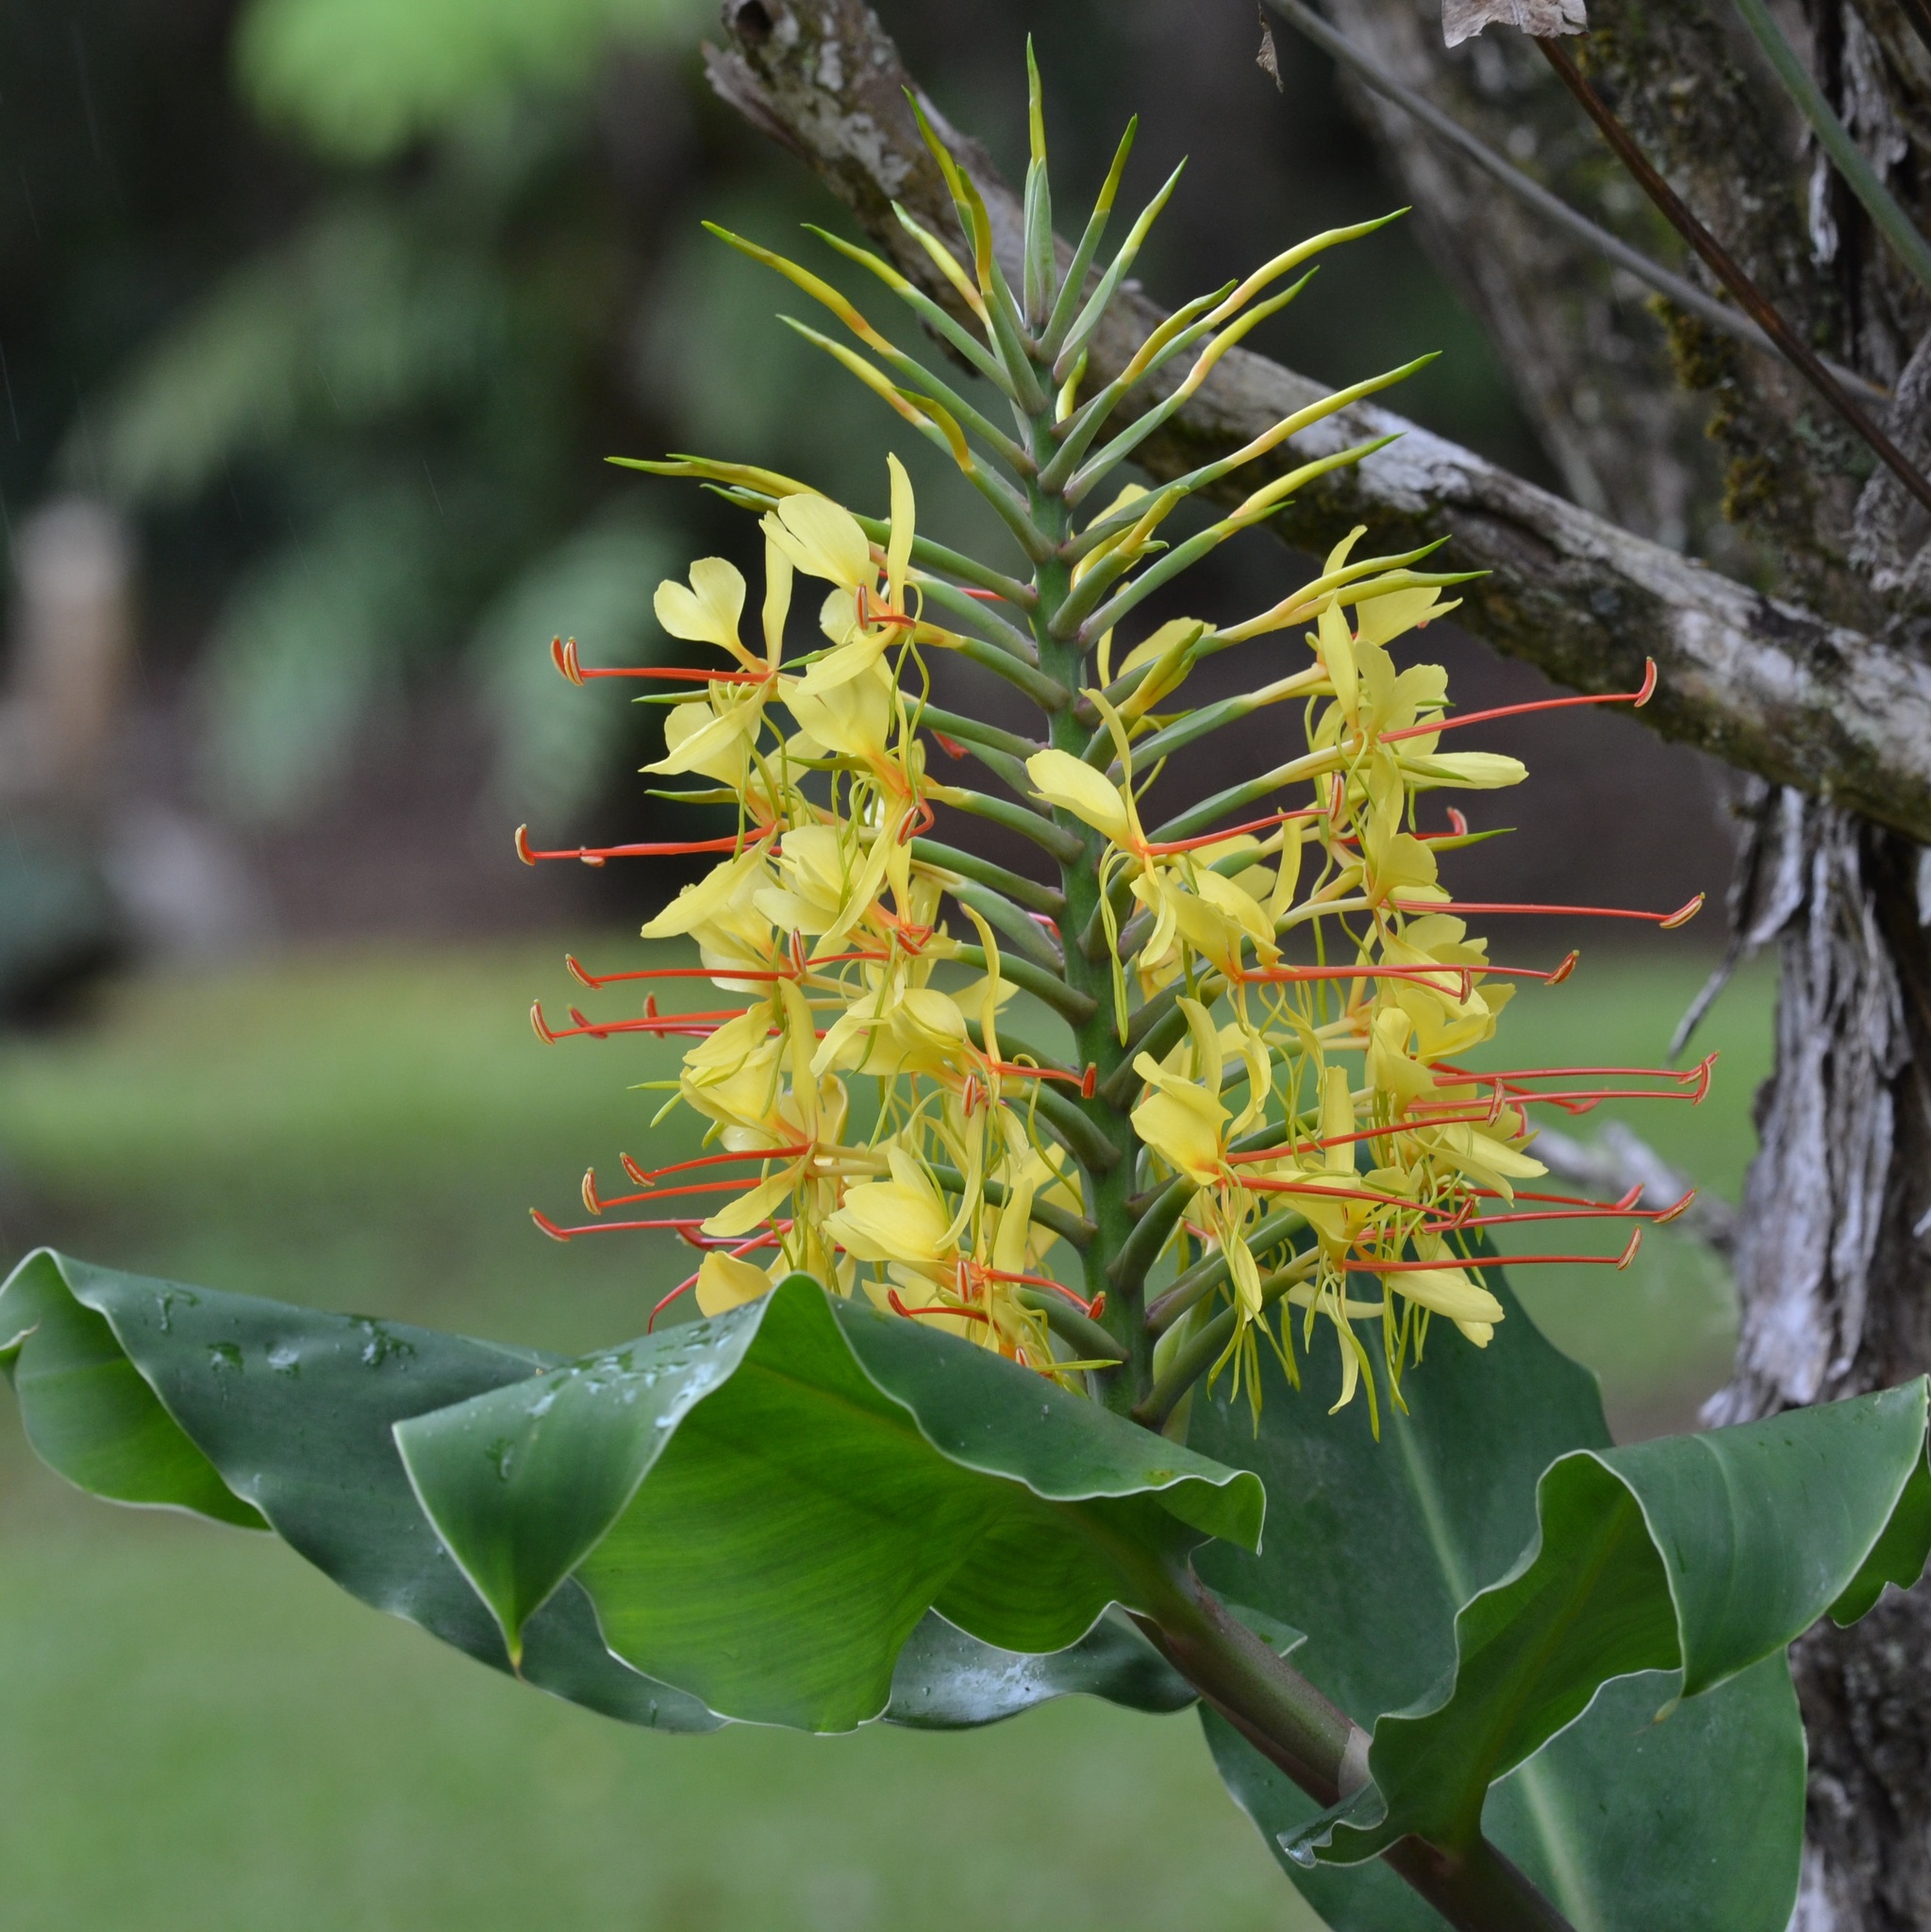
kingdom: Plantae
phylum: Tracheophyta
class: Liliopsida
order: Zingiberales
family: Zingiberaceae
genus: Hedychium
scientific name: Hedychium gardnerianum
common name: Himalayan ginger
